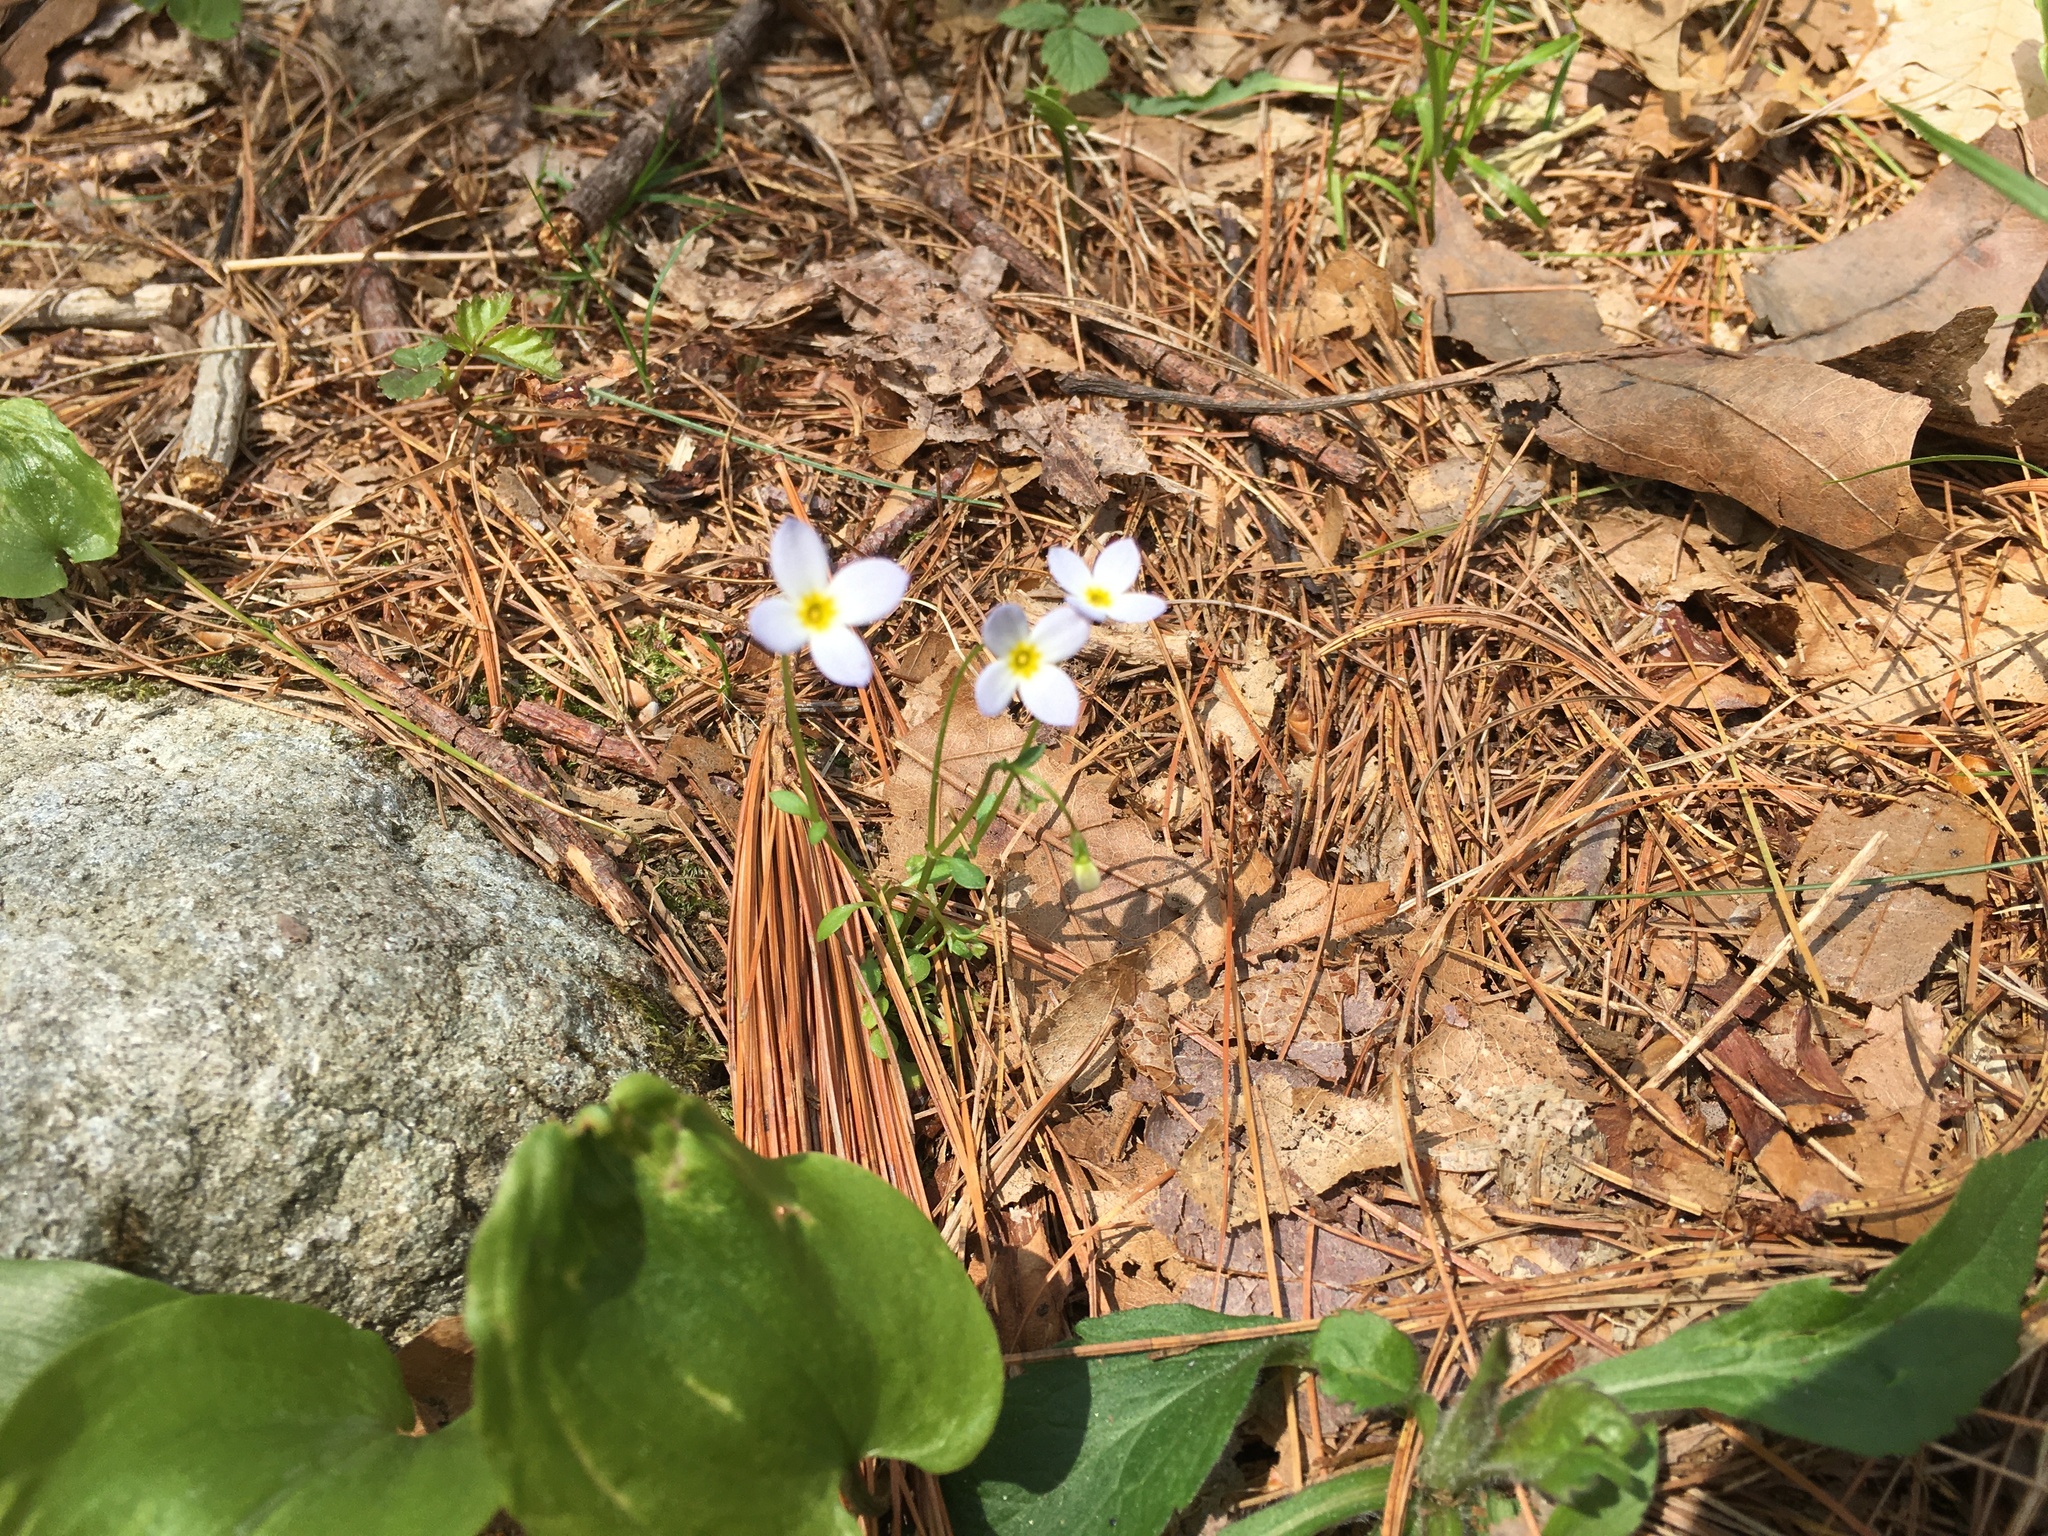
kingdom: Plantae
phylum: Tracheophyta
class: Magnoliopsida
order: Gentianales
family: Rubiaceae
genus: Houstonia
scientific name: Houstonia caerulea
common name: Bluets
